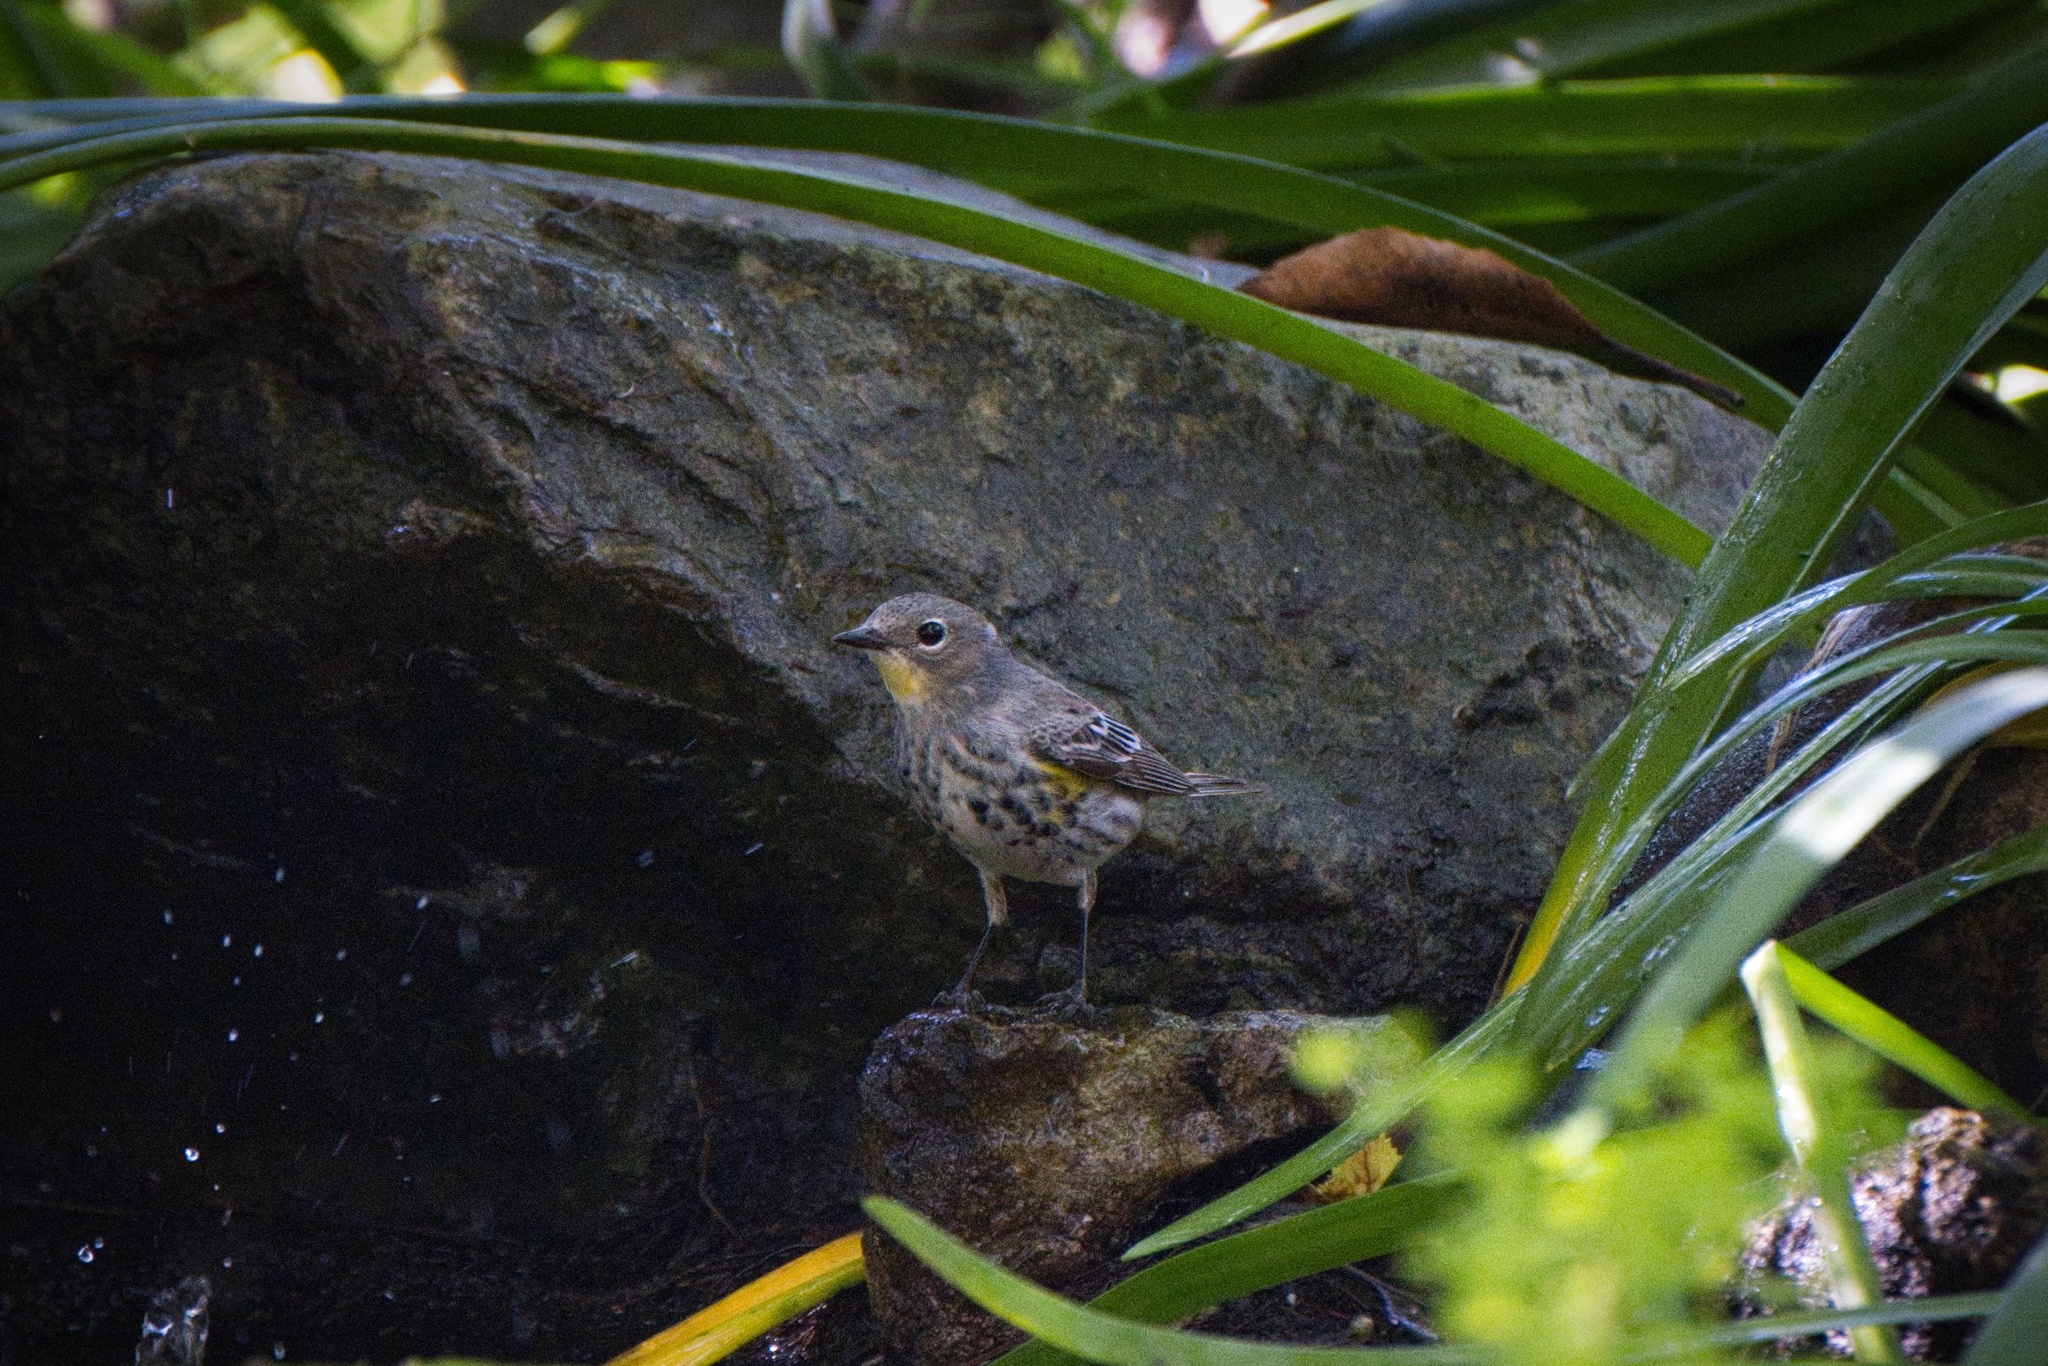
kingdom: Animalia
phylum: Chordata
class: Aves
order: Passeriformes
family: Parulidae
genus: Setophaga
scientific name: Setophaga coronata
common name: Myrtle warbler
